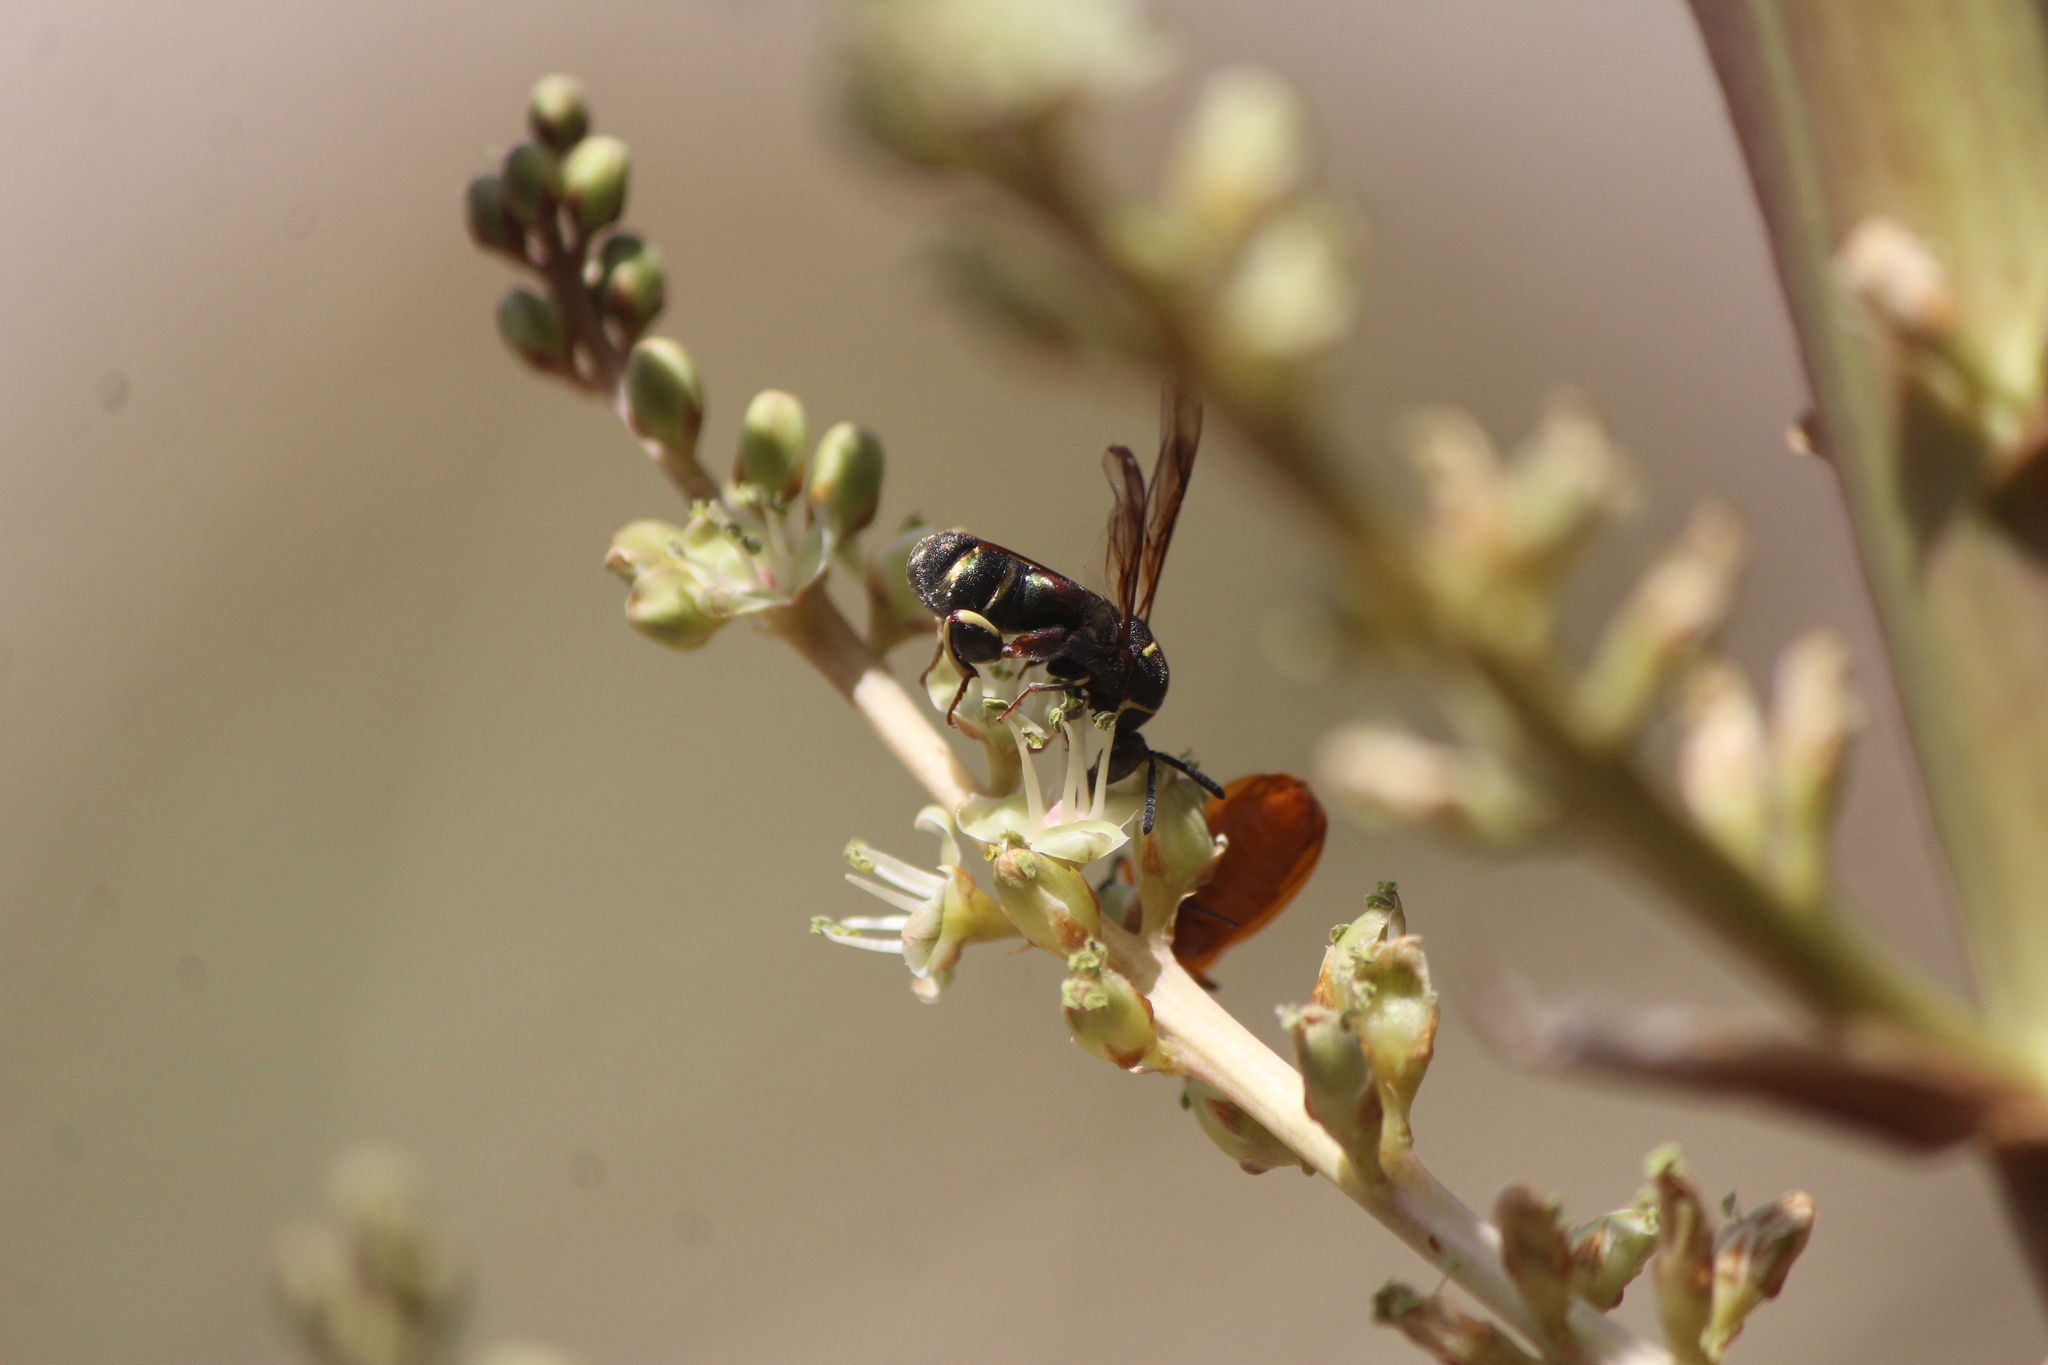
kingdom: Animalia
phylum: Arthropoda
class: Insecta
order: Hymenoptera
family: Leucospidae
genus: Leucospis
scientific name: Leucospis birkmani
